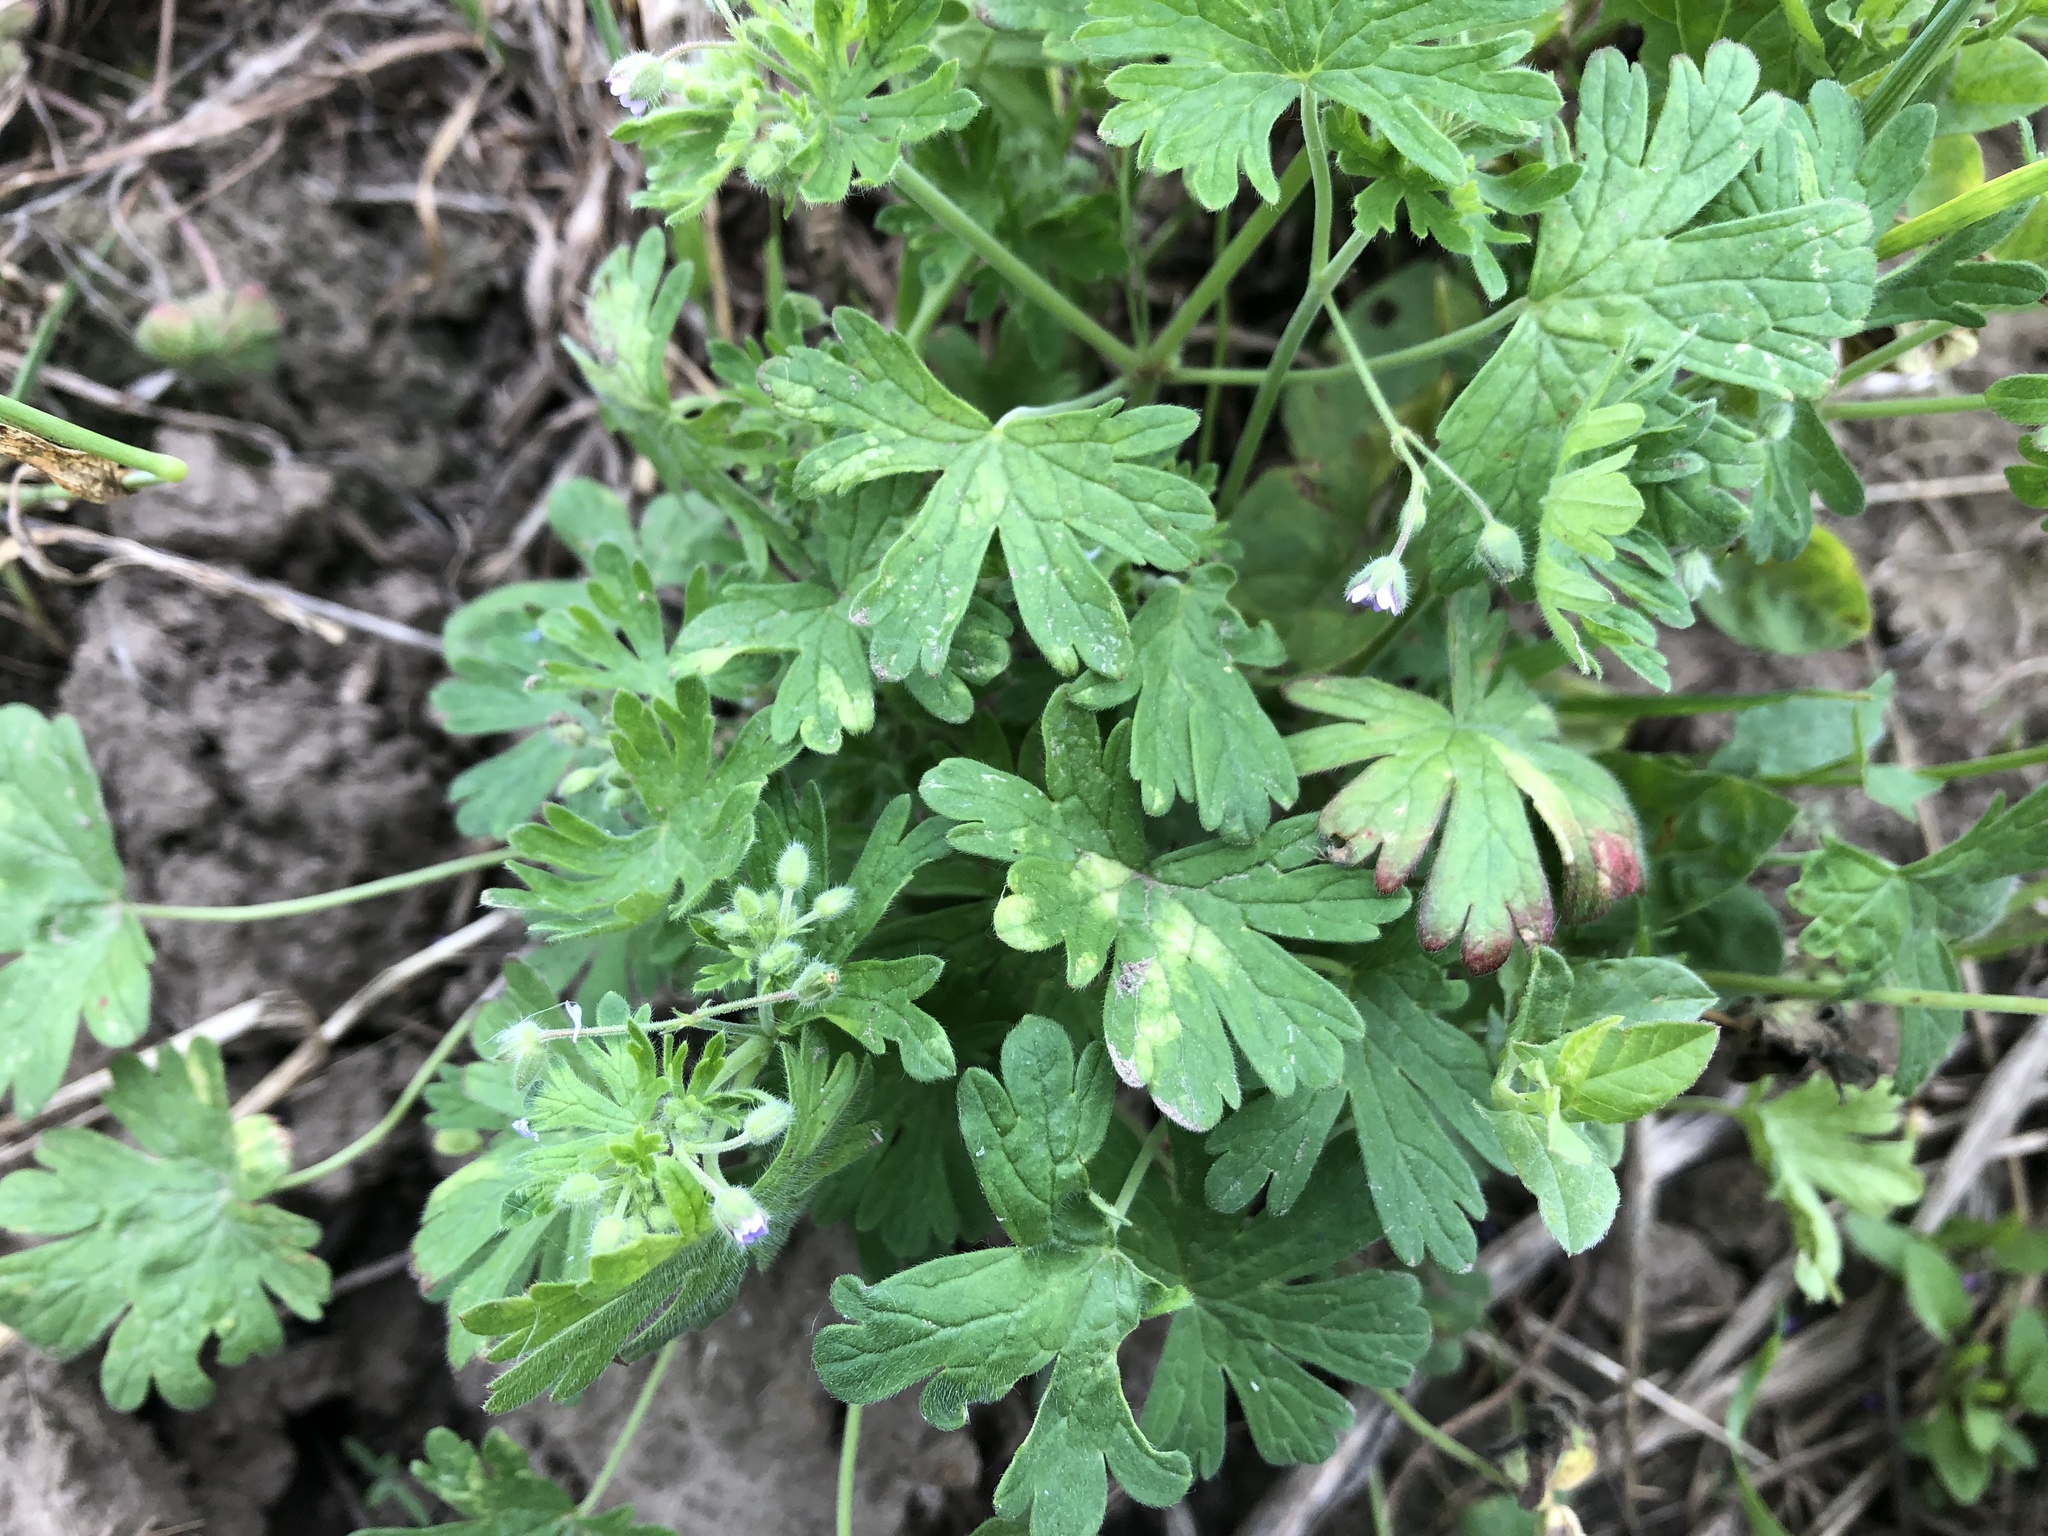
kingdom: Plantae
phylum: Tracheophyta
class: Magnoliopsida
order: Geraniales
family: Geraniaceae
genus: Geranium
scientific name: Geranium pusillum
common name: Small geranium
